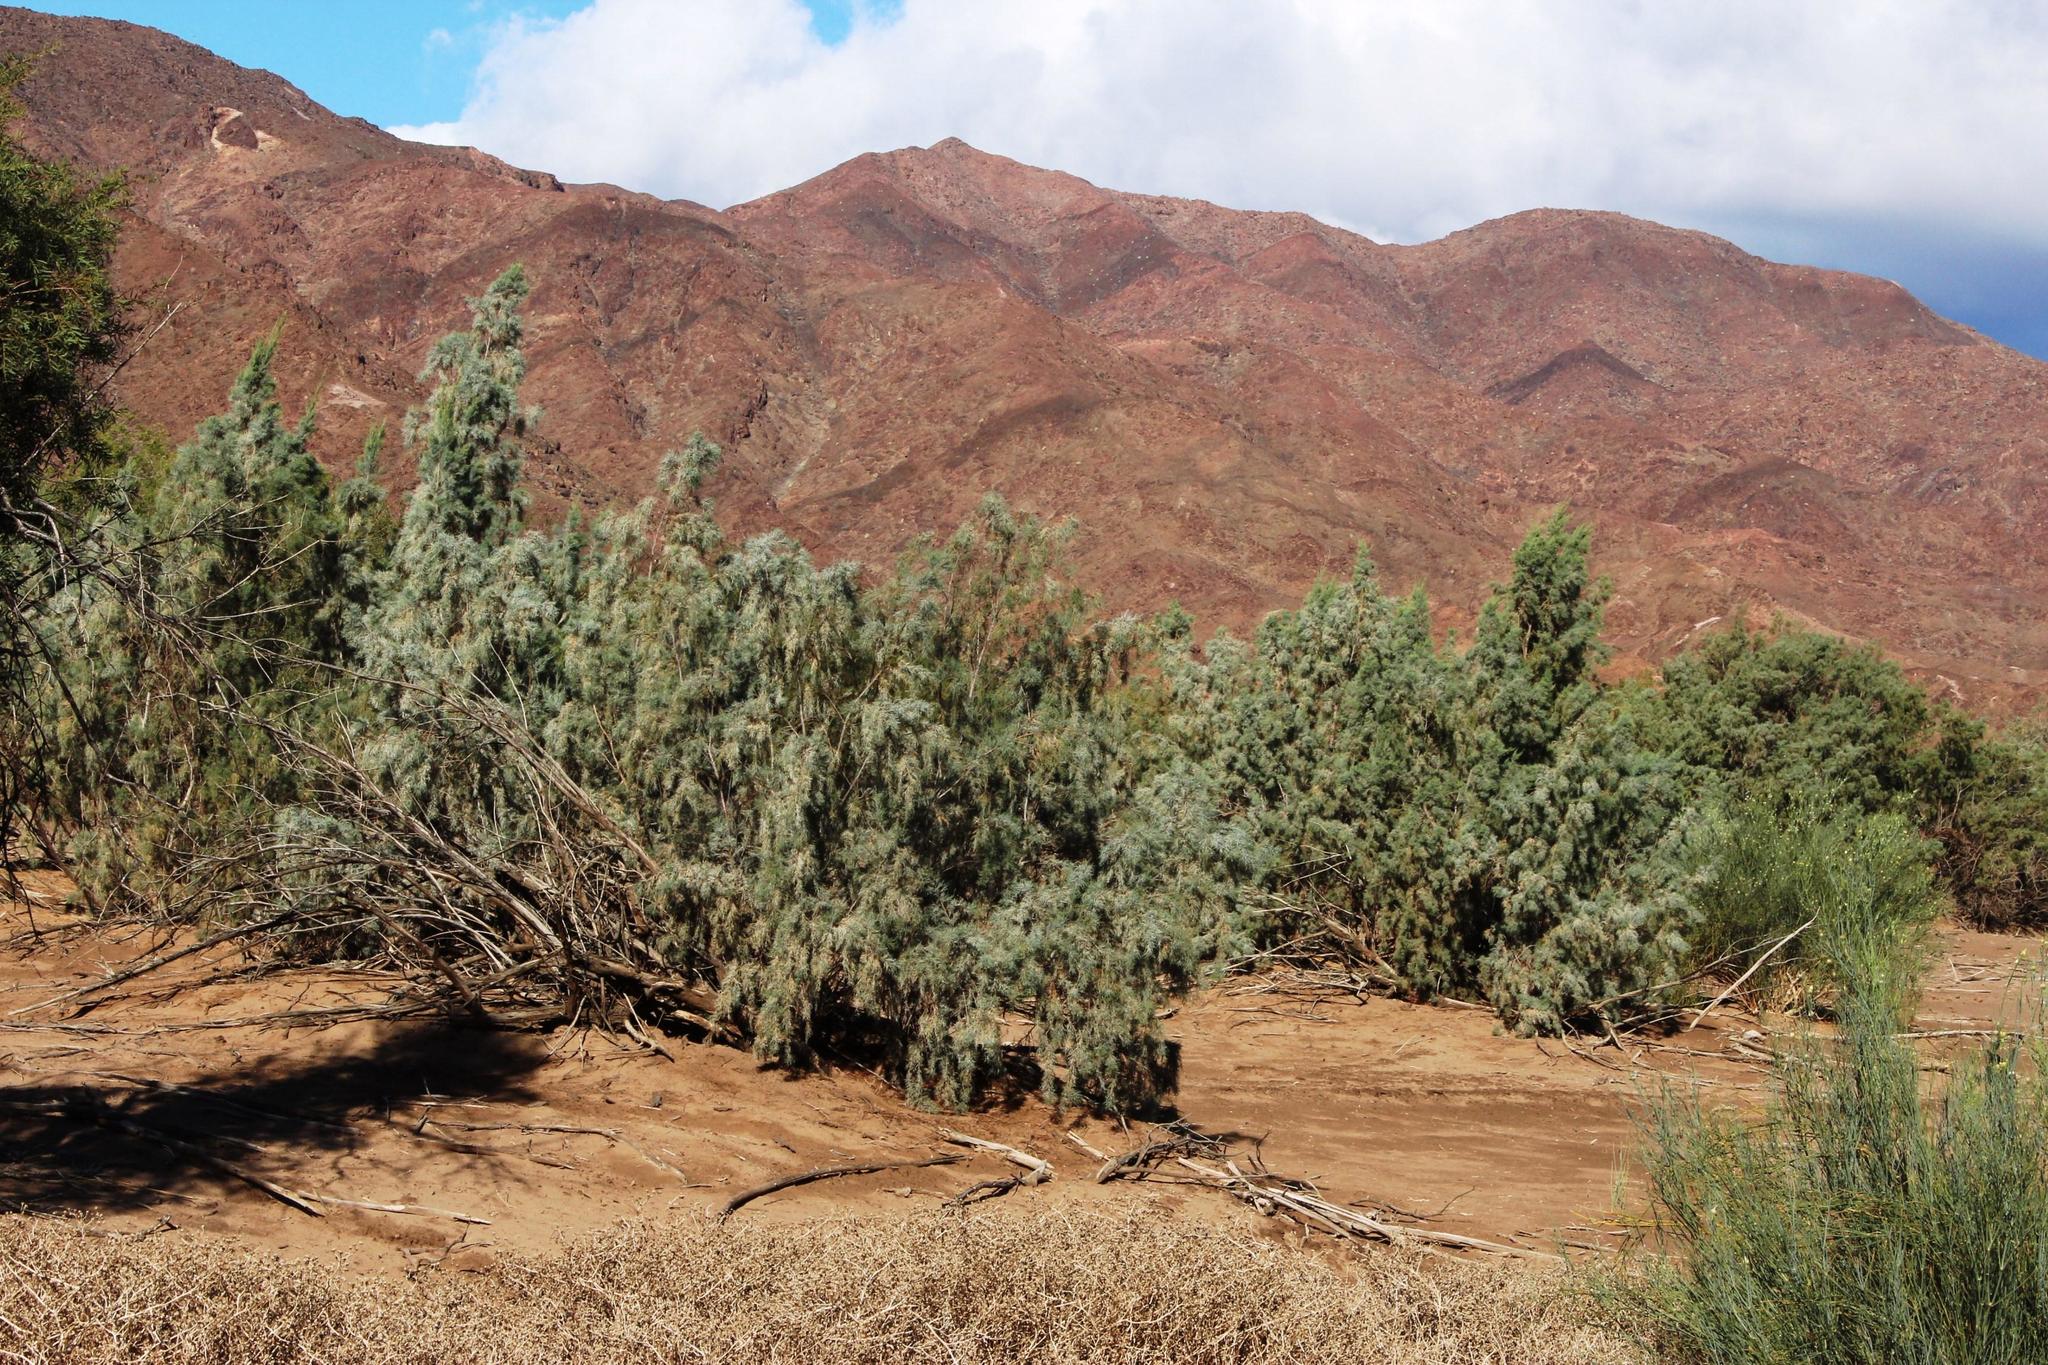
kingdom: Plantae
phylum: Tracheophyta
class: Magnoliopsida
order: Caryophyllales
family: Tamaricaceae
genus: Tamarix
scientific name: Tamarix usneoides
